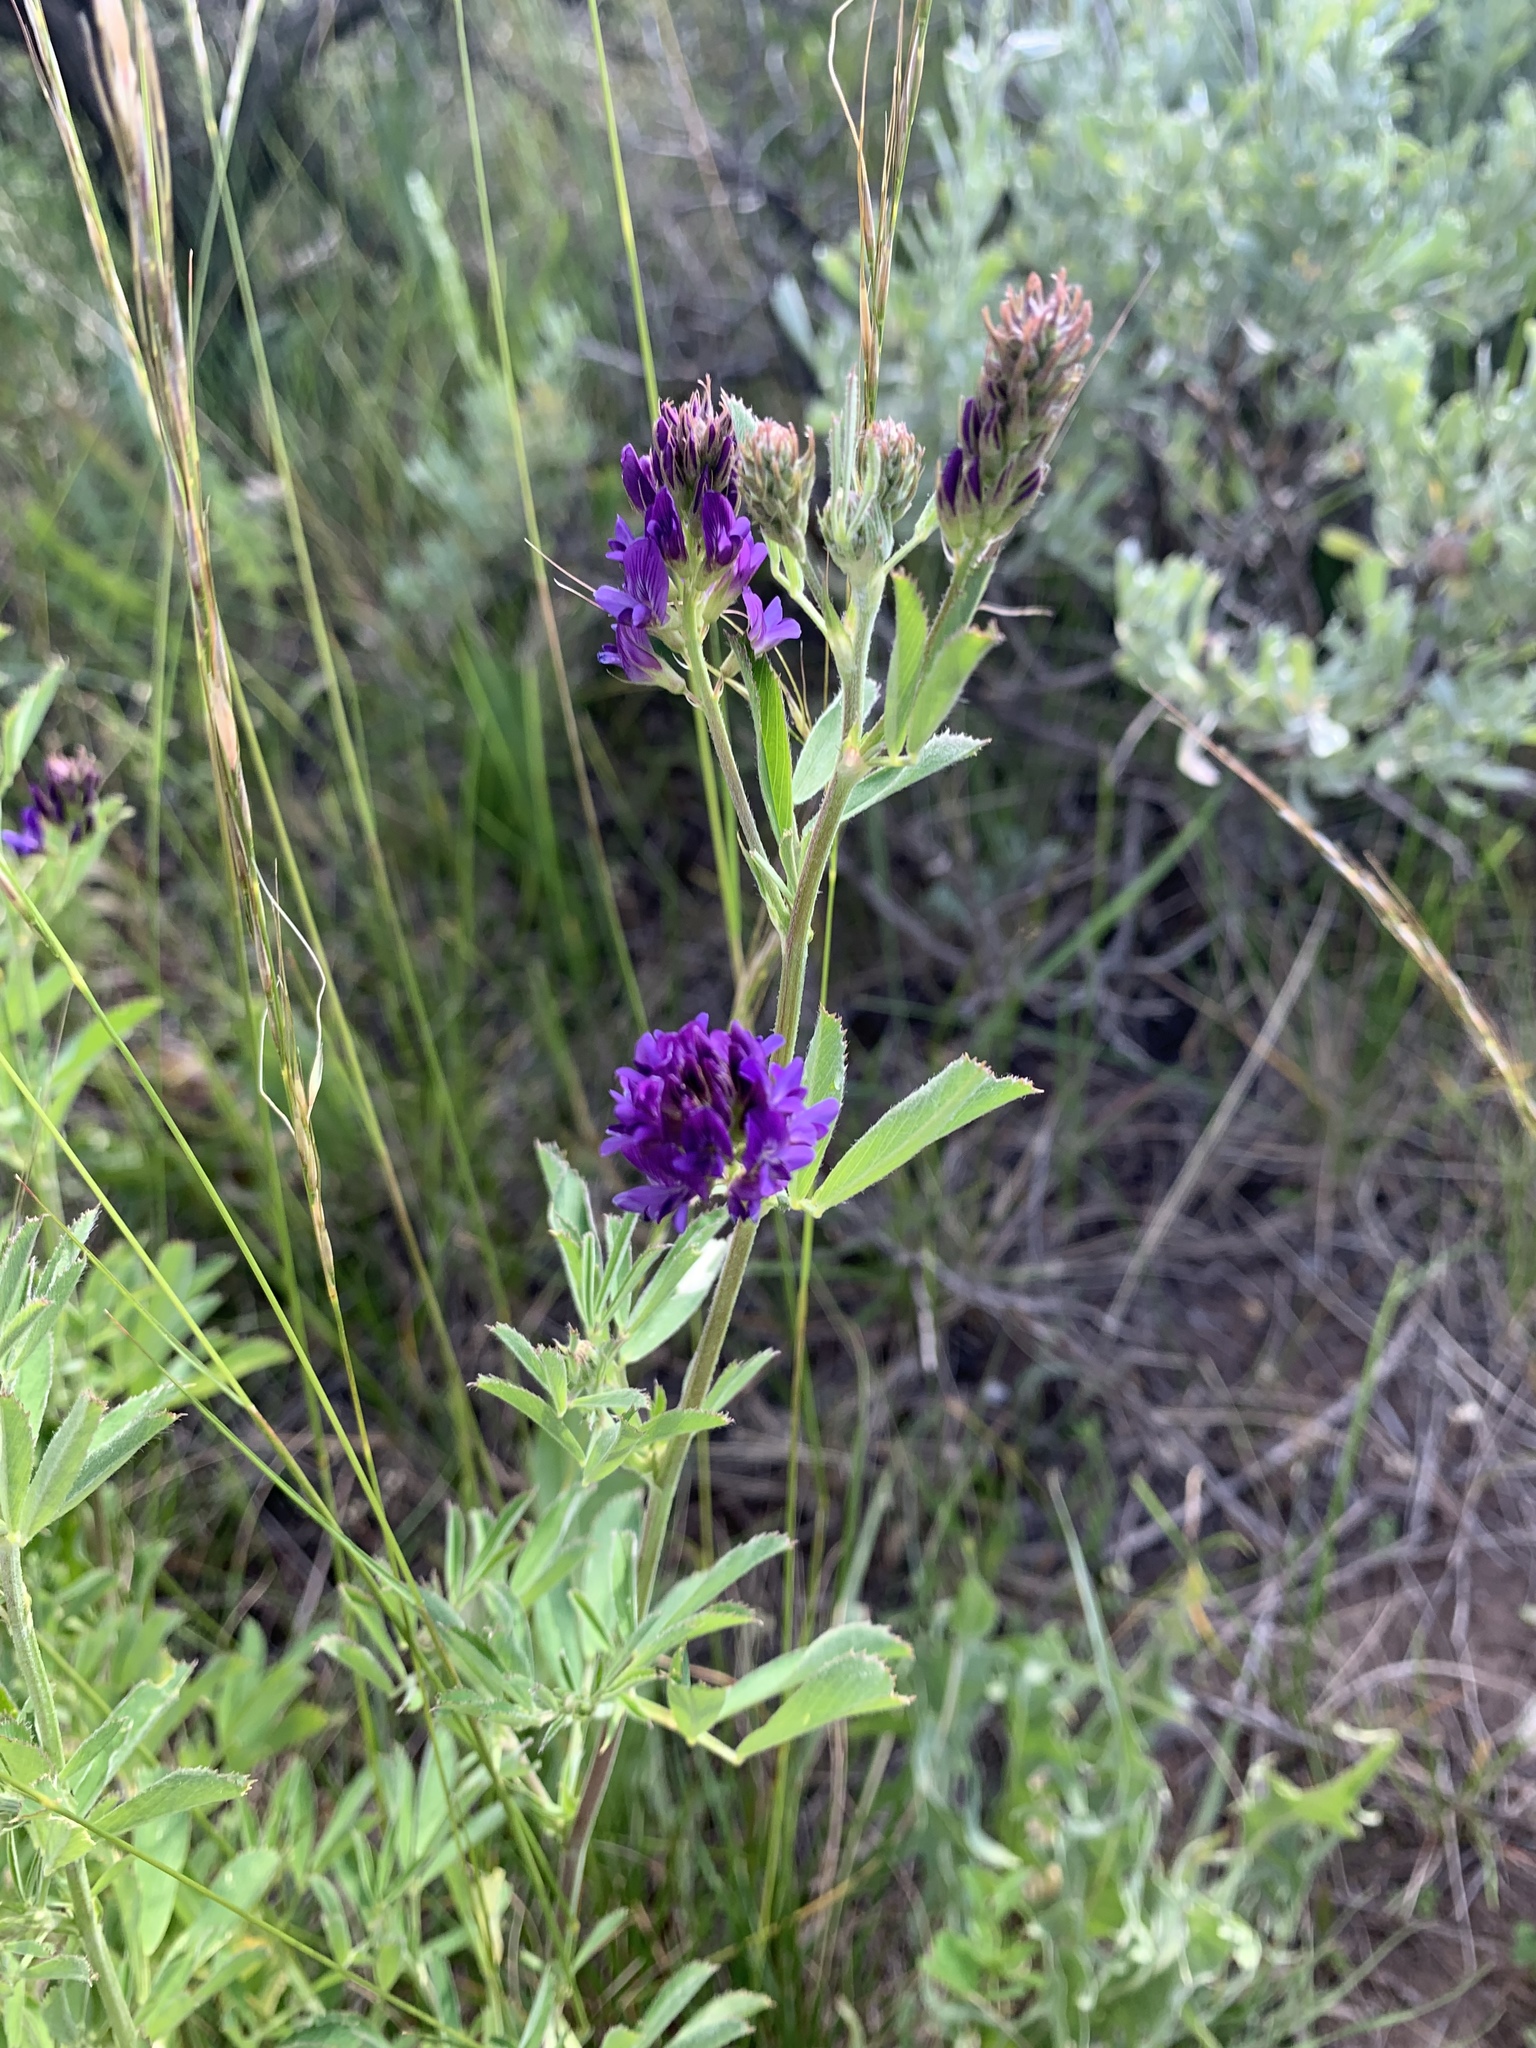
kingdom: Plantae
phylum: Tracheophyta
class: Magnoliopsida
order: Fabales
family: Fabaceae
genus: Medicago
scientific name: Medicago sativa
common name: Alfalfa
